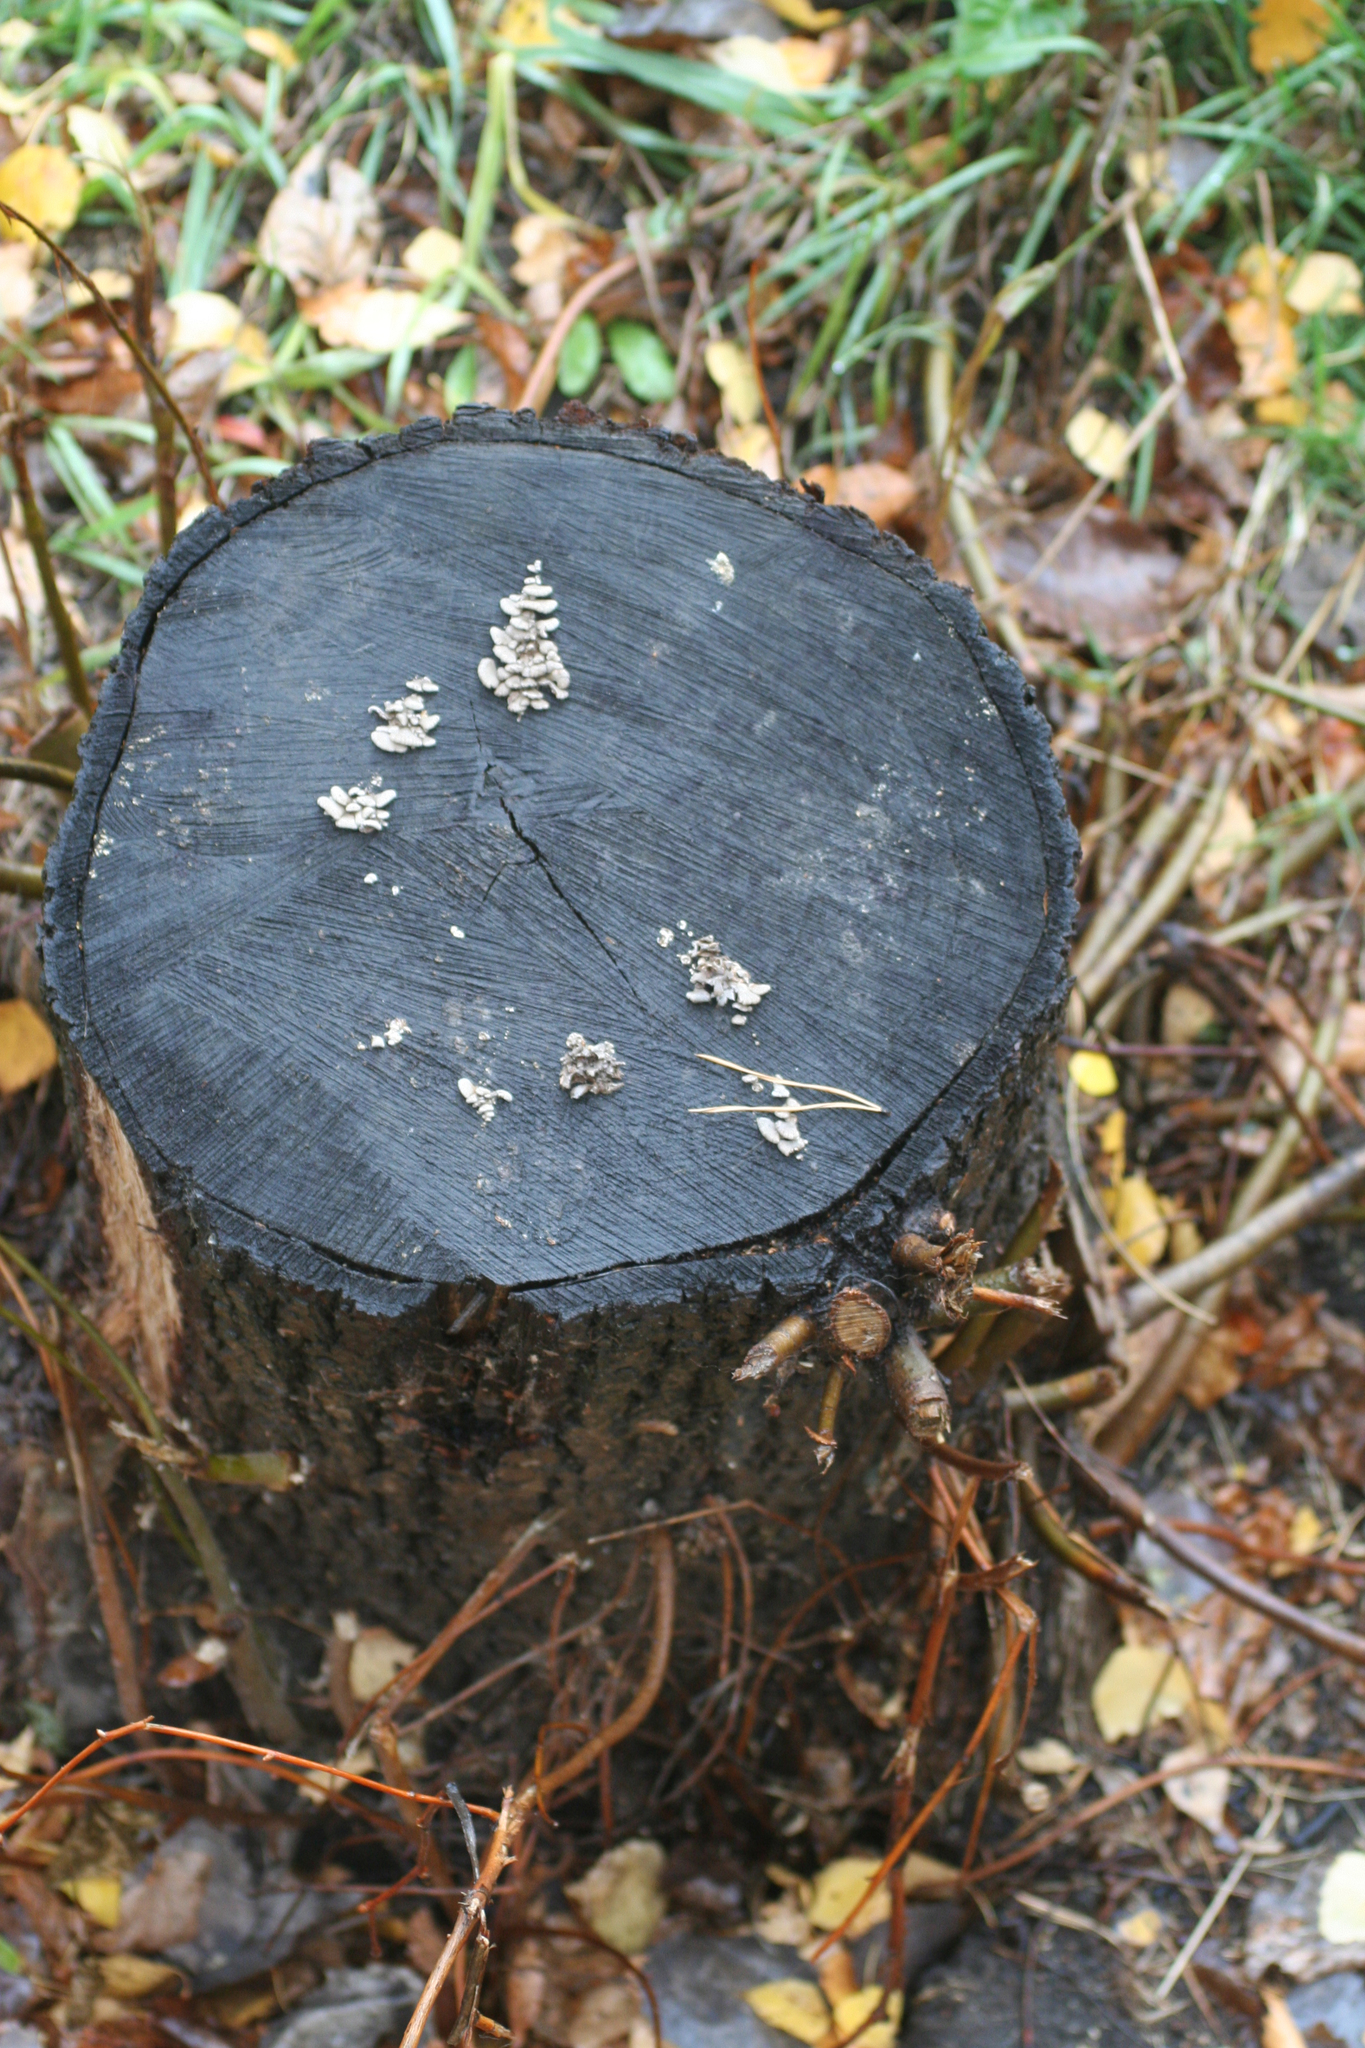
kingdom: Fungi
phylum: Basidiomycota
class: Agaricomycetes
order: Agaricales
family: Schizophyllaceae
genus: Schizophyllum
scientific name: Schizophyllum commune
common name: Common porecrust
